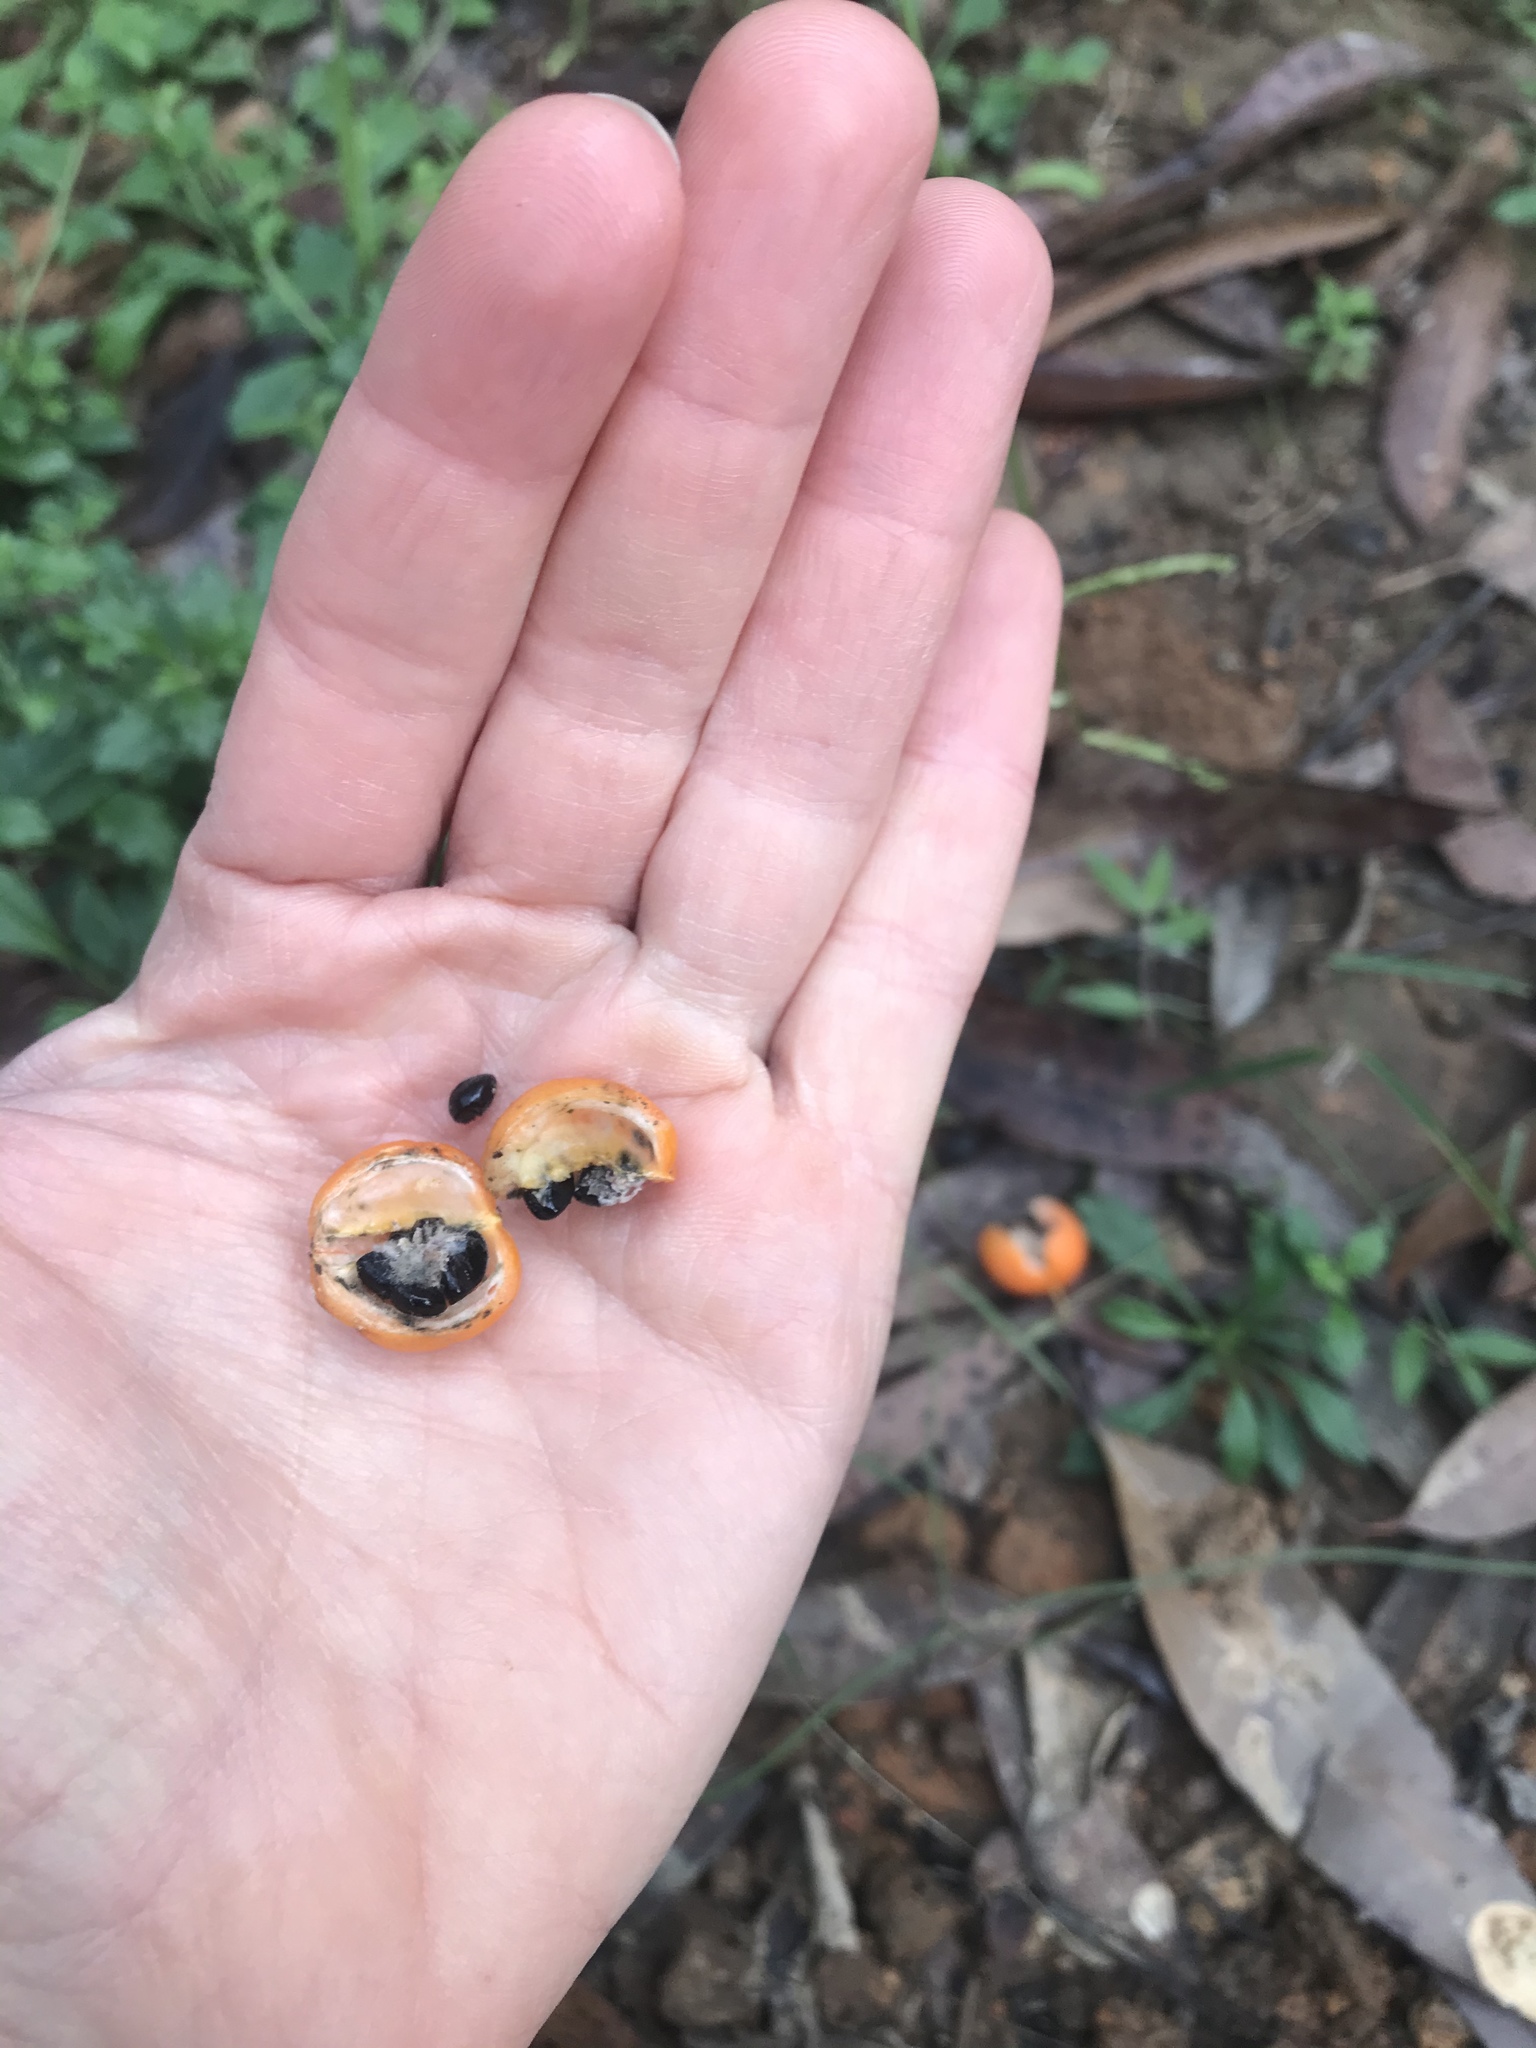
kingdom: Plantae
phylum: Tracheophyta
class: Liliopsida
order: Asparagales
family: Asparagaceae
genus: Eustrephus
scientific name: Eustrephus latifolius
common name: Orangevine
